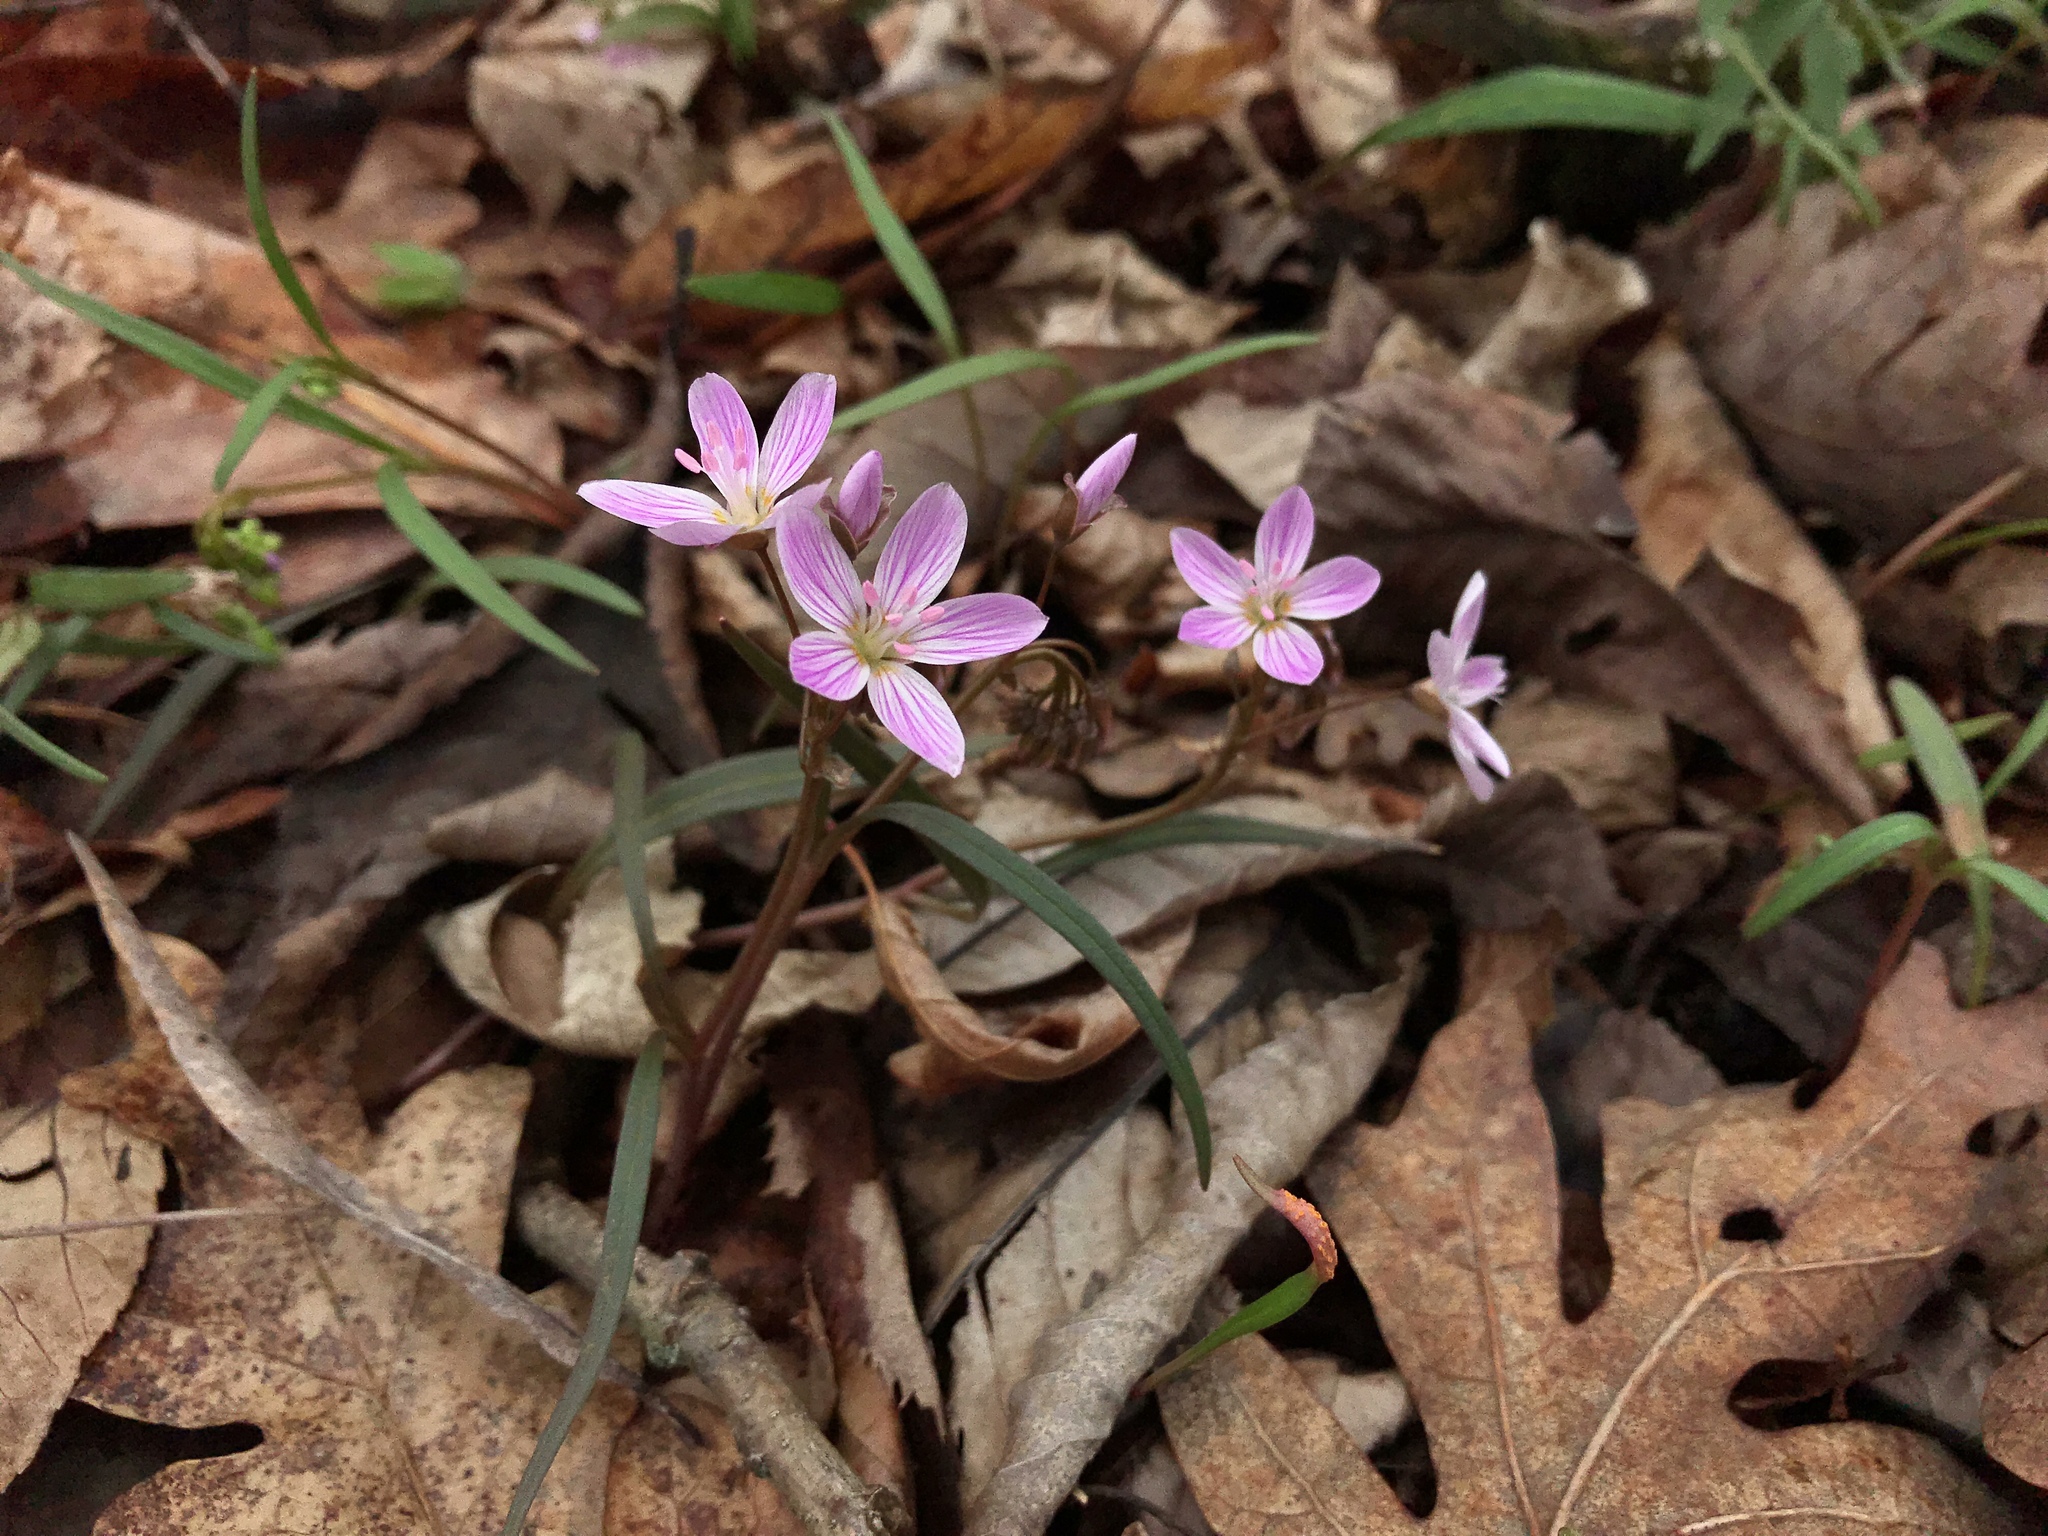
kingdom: Plantae
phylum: Tracheophyta
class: Magnoliopsida
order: Caryophyllales
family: Montiaceae
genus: Claytonia
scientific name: Claytonia virginica
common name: Virginia springbeauty
